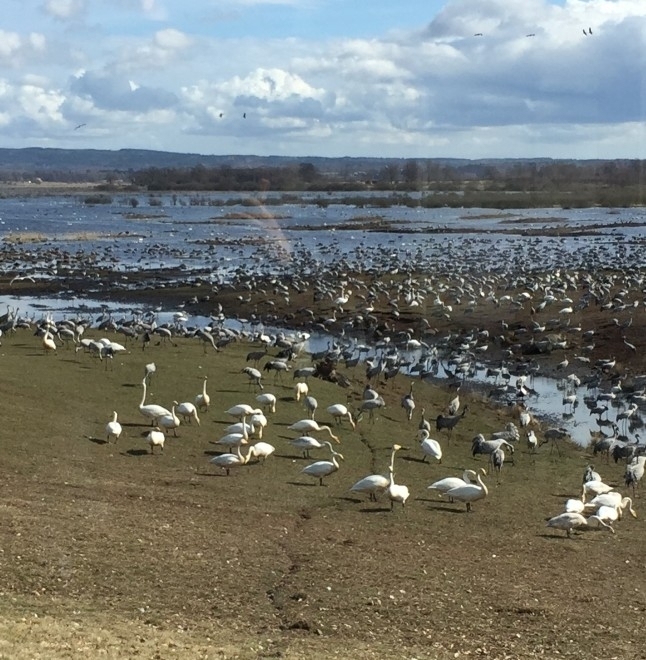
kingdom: Animalia
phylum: Chordata
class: Aves
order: Anseriformes
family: Anatidae
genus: Cygnus
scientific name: Cygnus cygnus
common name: Whooper swan
